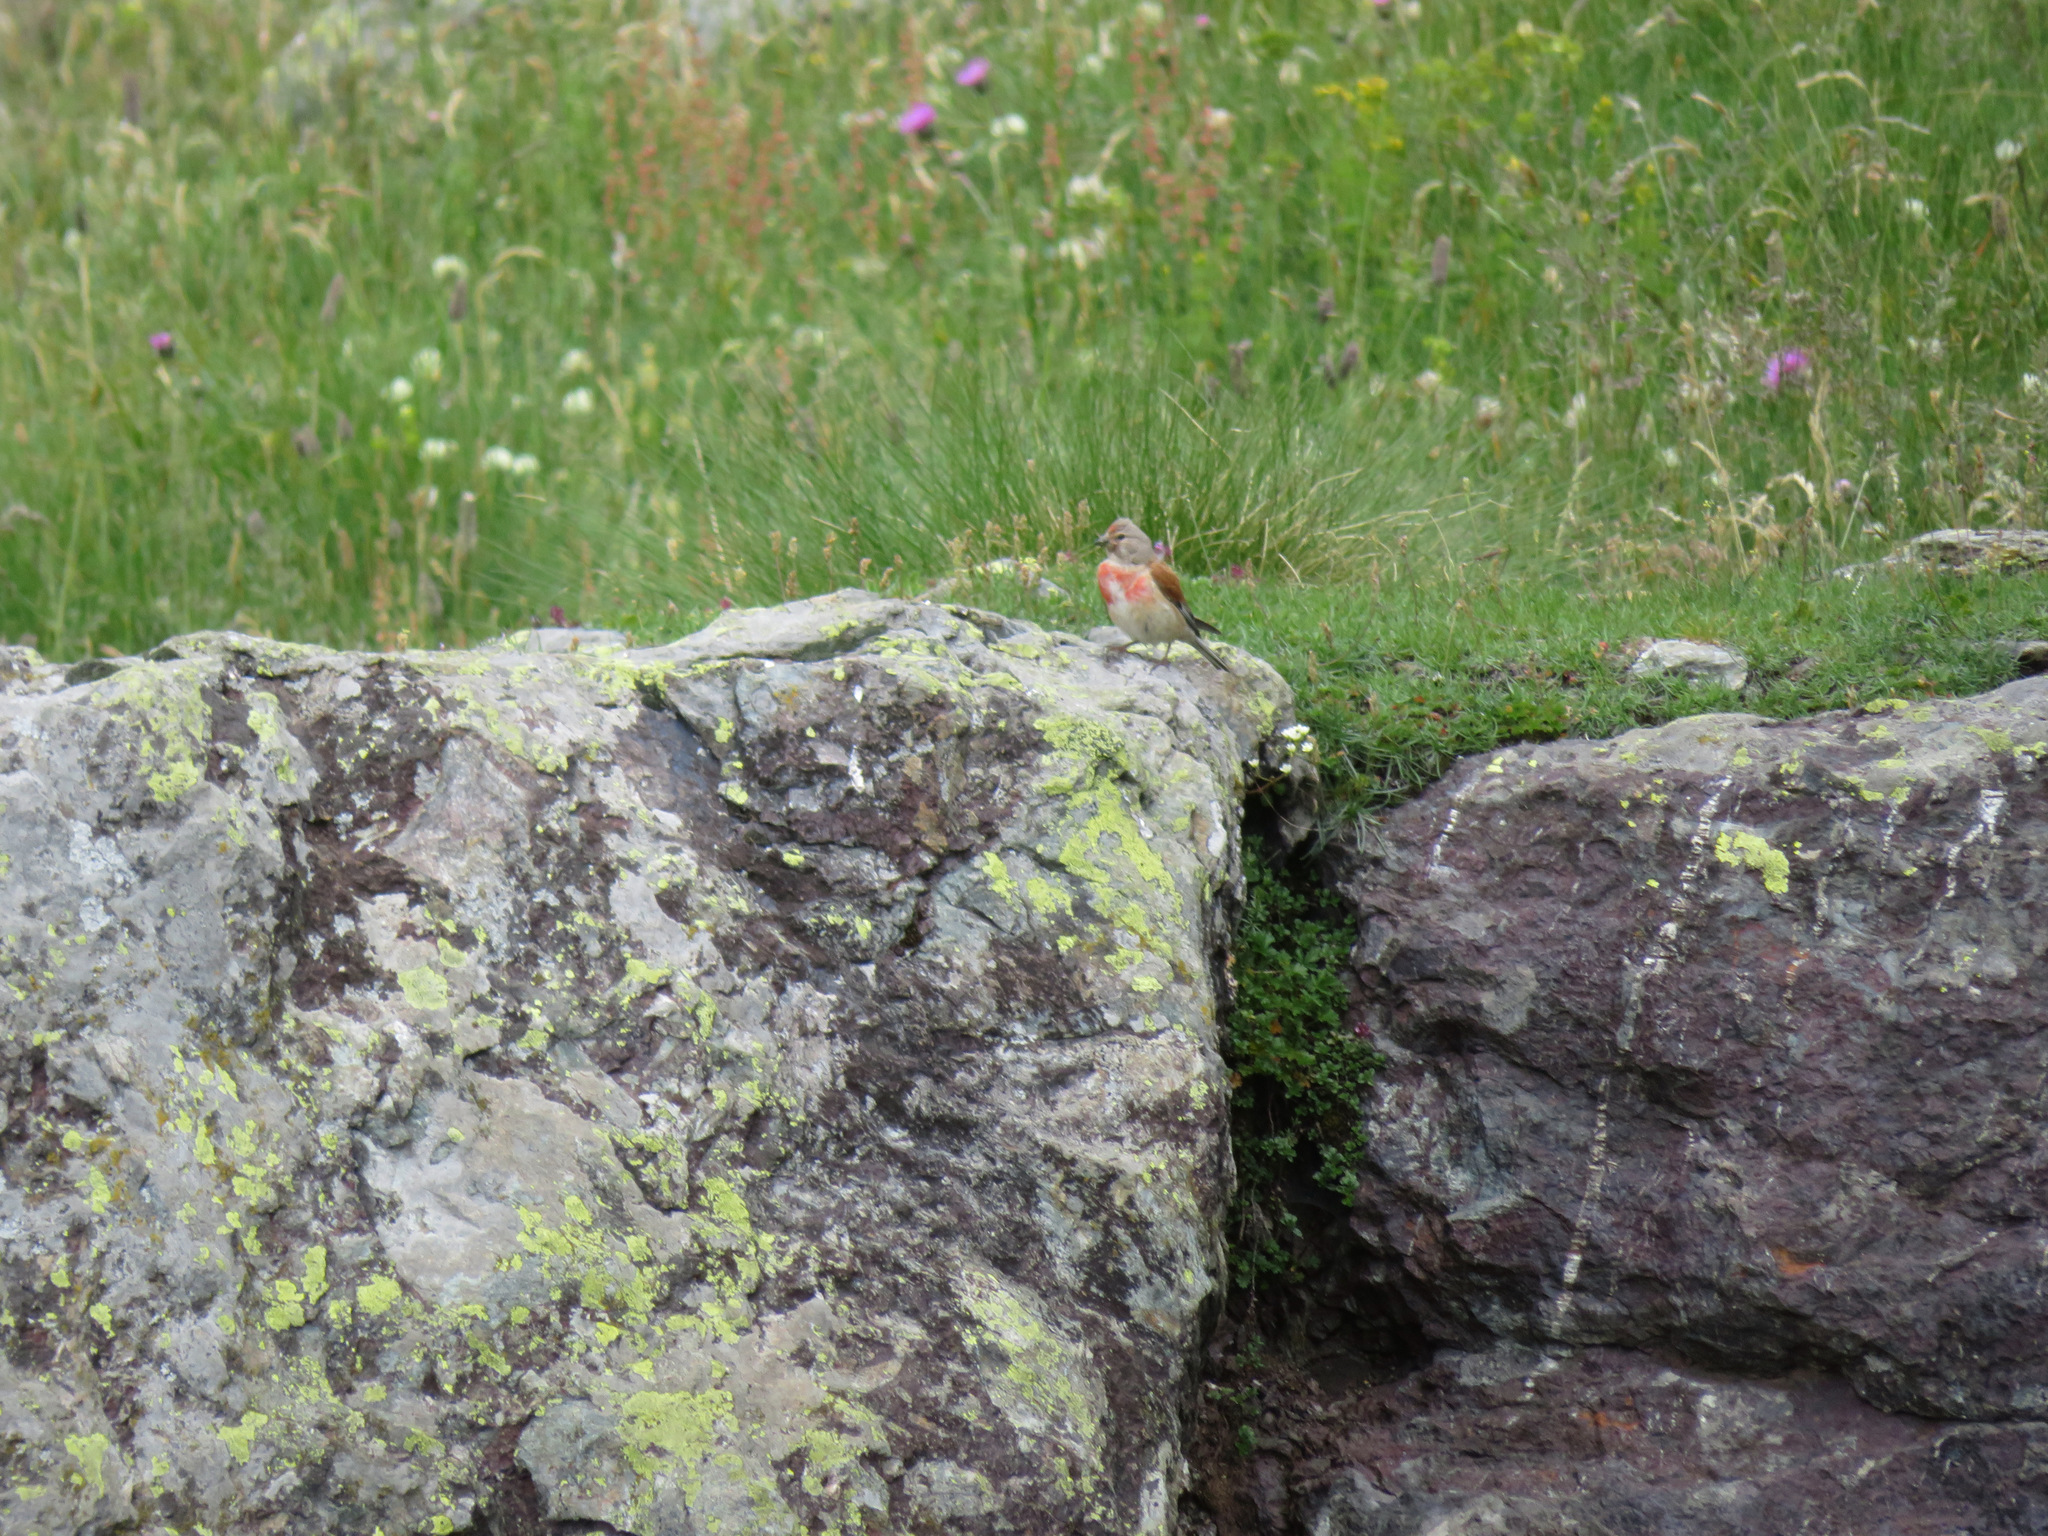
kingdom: Animalia
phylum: Chordata
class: Aves
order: Passeriformes
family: Fringillidae
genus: Linaria
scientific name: Linaria cannabina
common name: Common linnet
